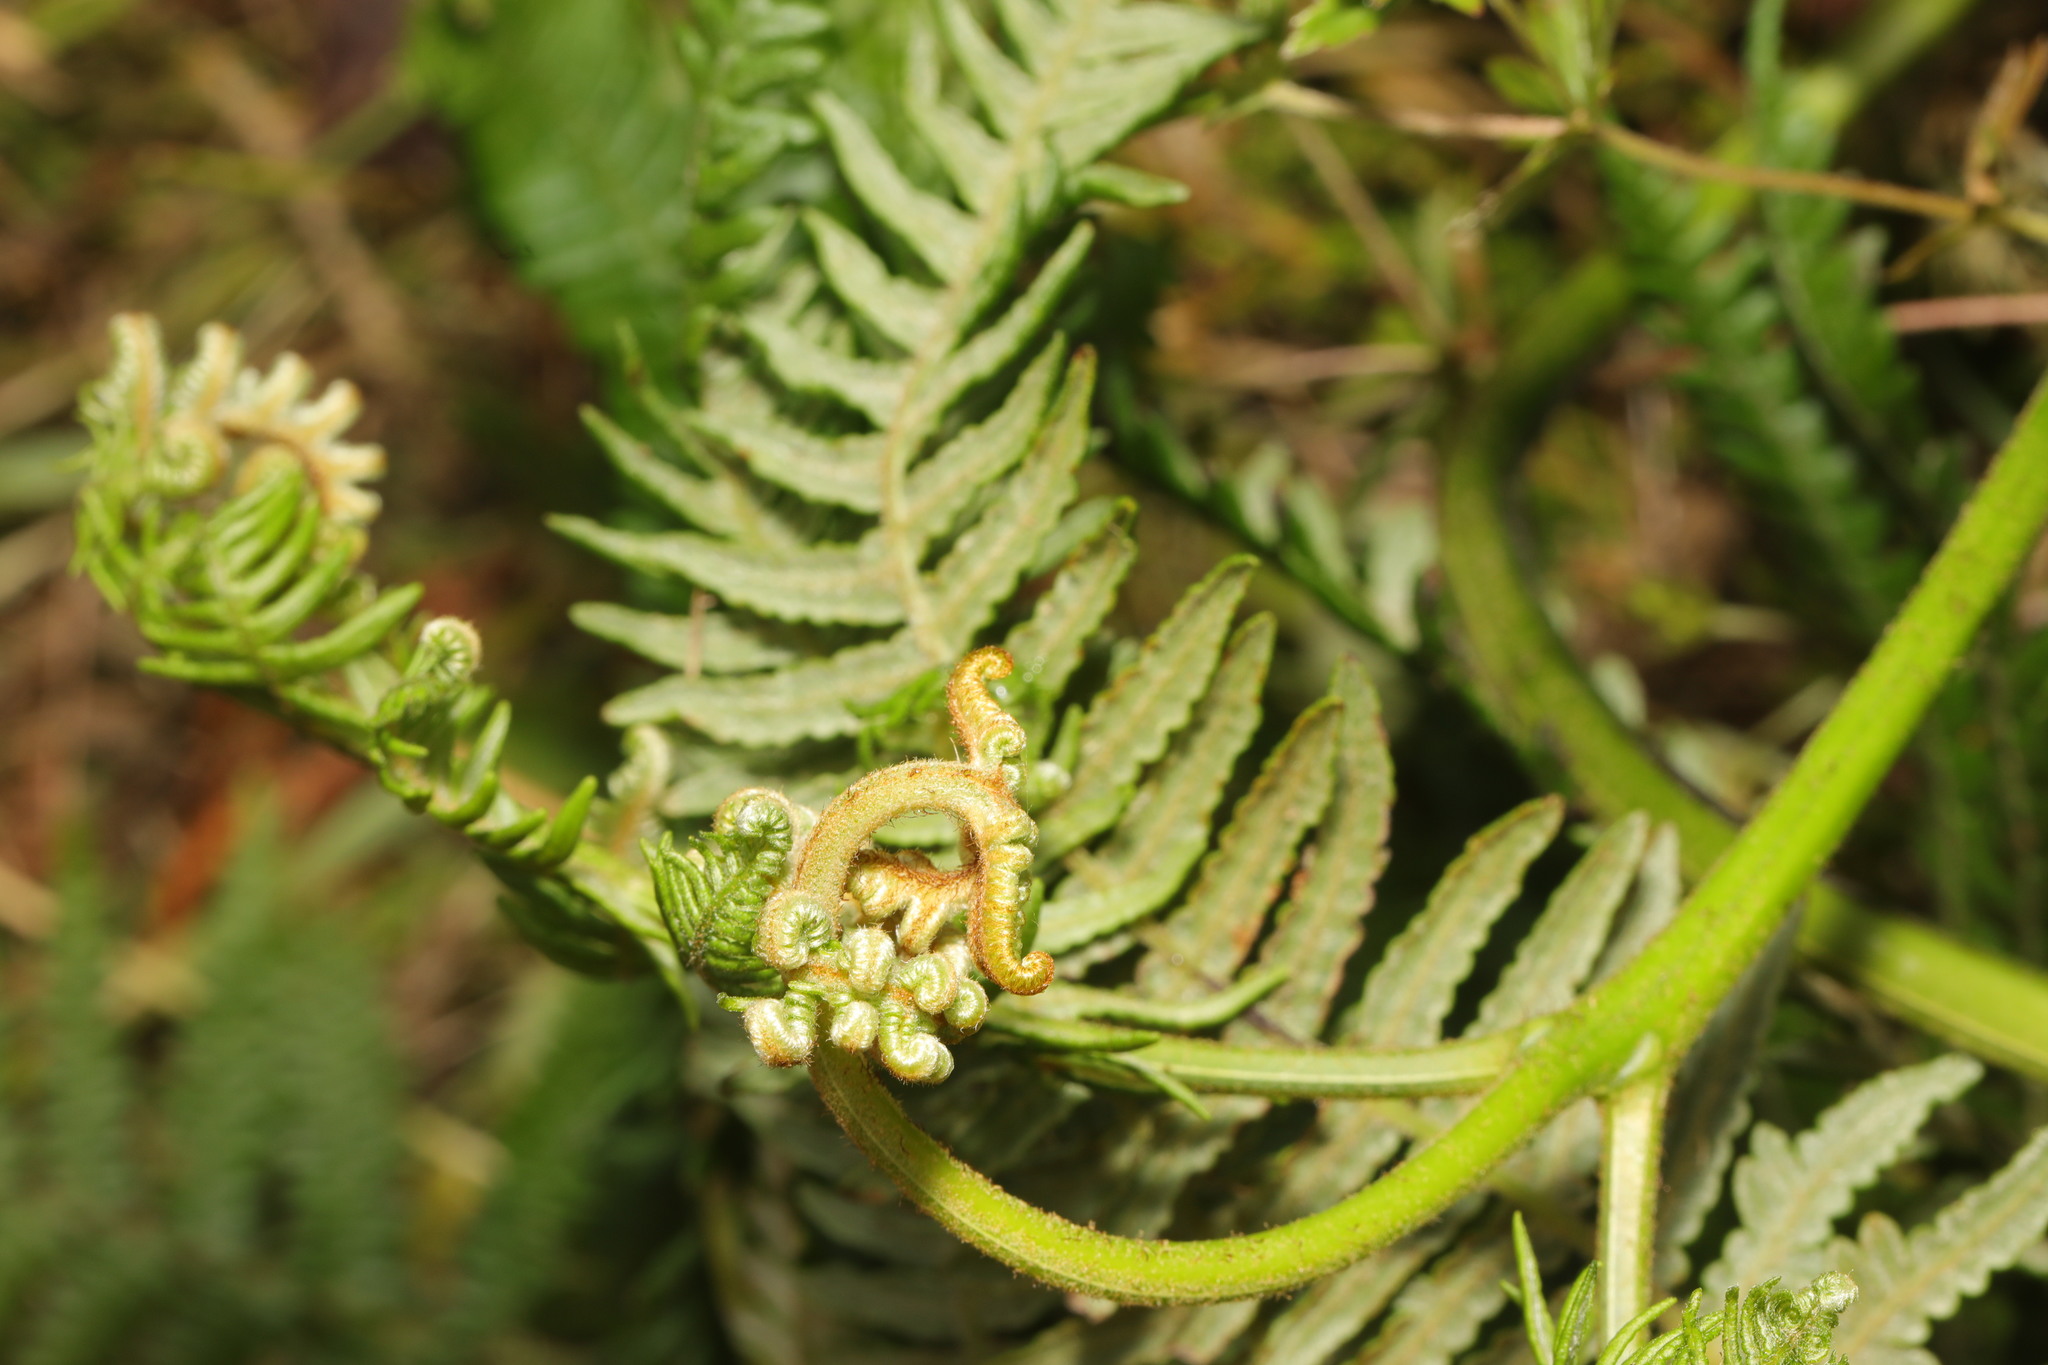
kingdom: Plantae
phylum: Tracheophyta
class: Polypodiopsida
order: Polypodiales
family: Dennstaedtiaceae
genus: Pteridium
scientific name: Pteridium aquilinum
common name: Bracken
